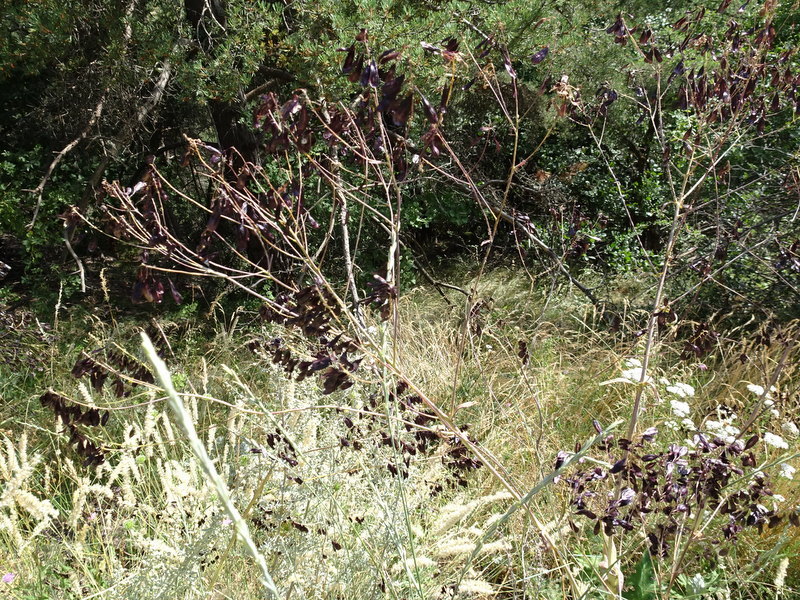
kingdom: Plantae
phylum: Tracheophyta
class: Magnoliopsida
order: Brassicales
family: Brassicaceae
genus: Isatis
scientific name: Isatis tinctoria
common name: Woad
